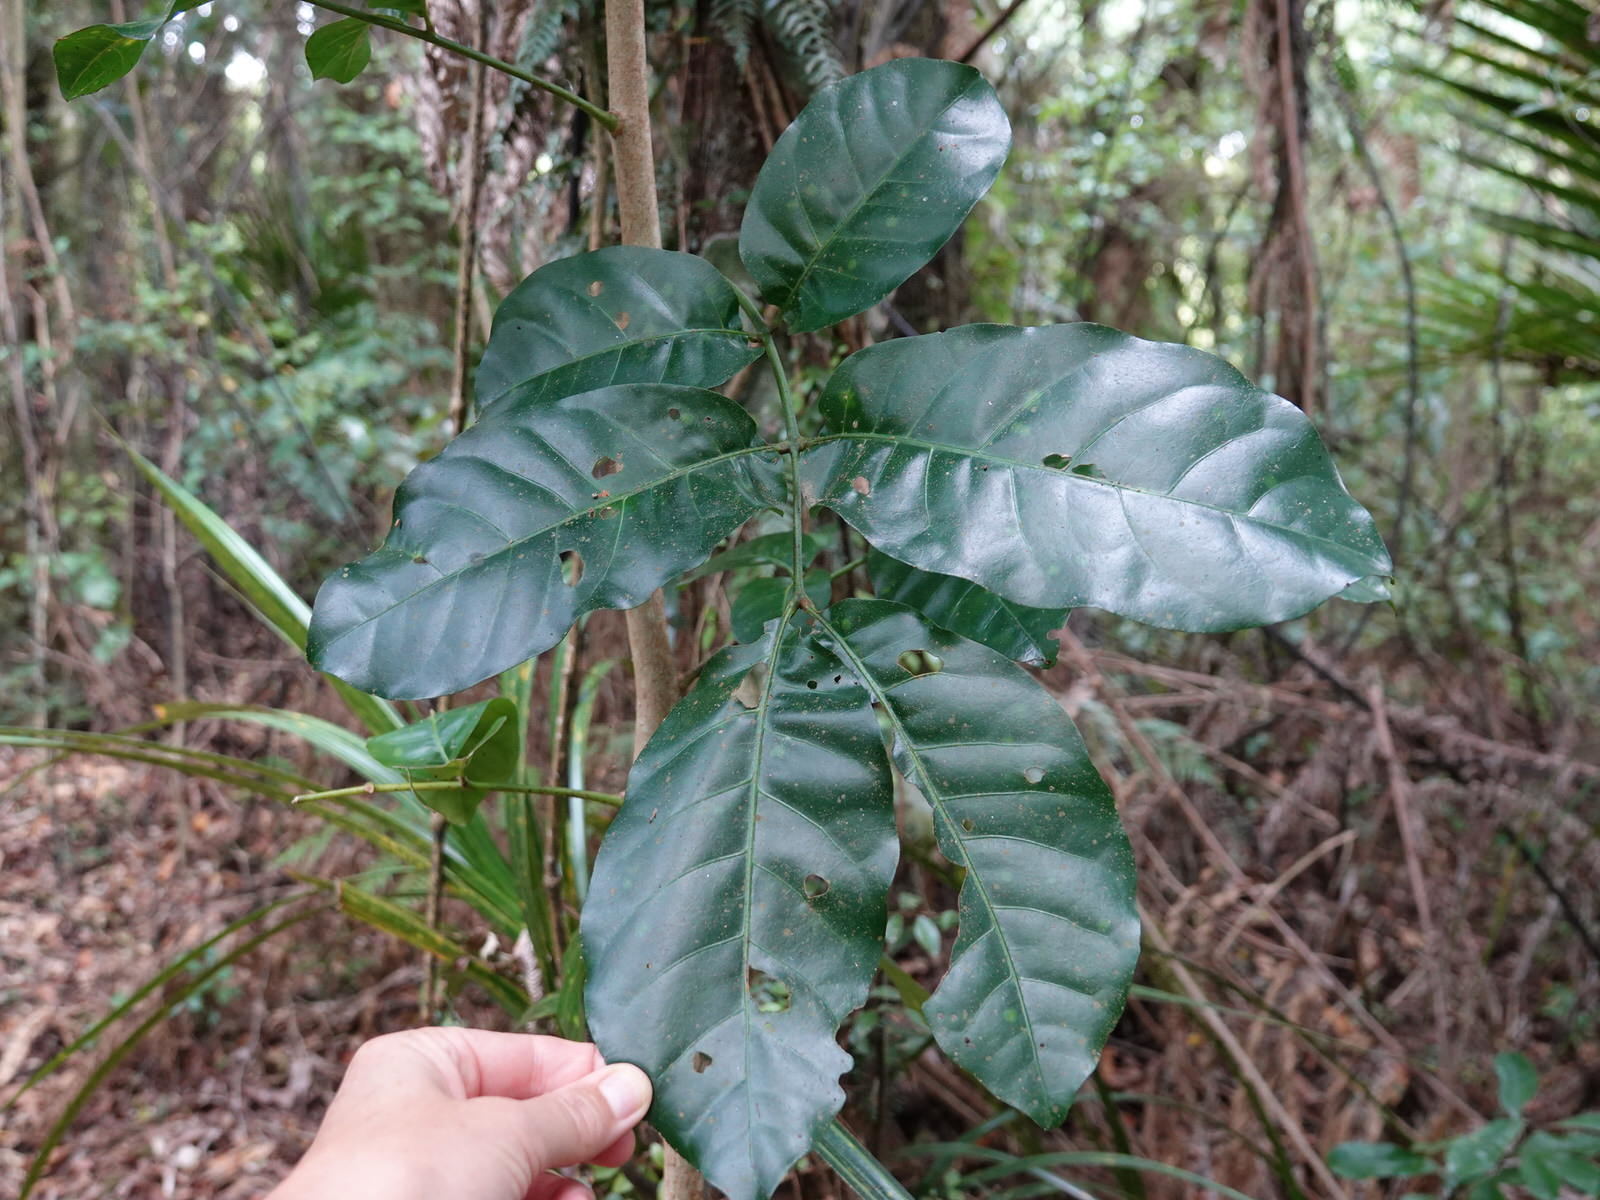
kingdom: Plantae
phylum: Tracheophyta
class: Magnoliopsida
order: Sapindales
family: Meliaceae
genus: Didymocheton
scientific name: Didymocheton spectabilis
